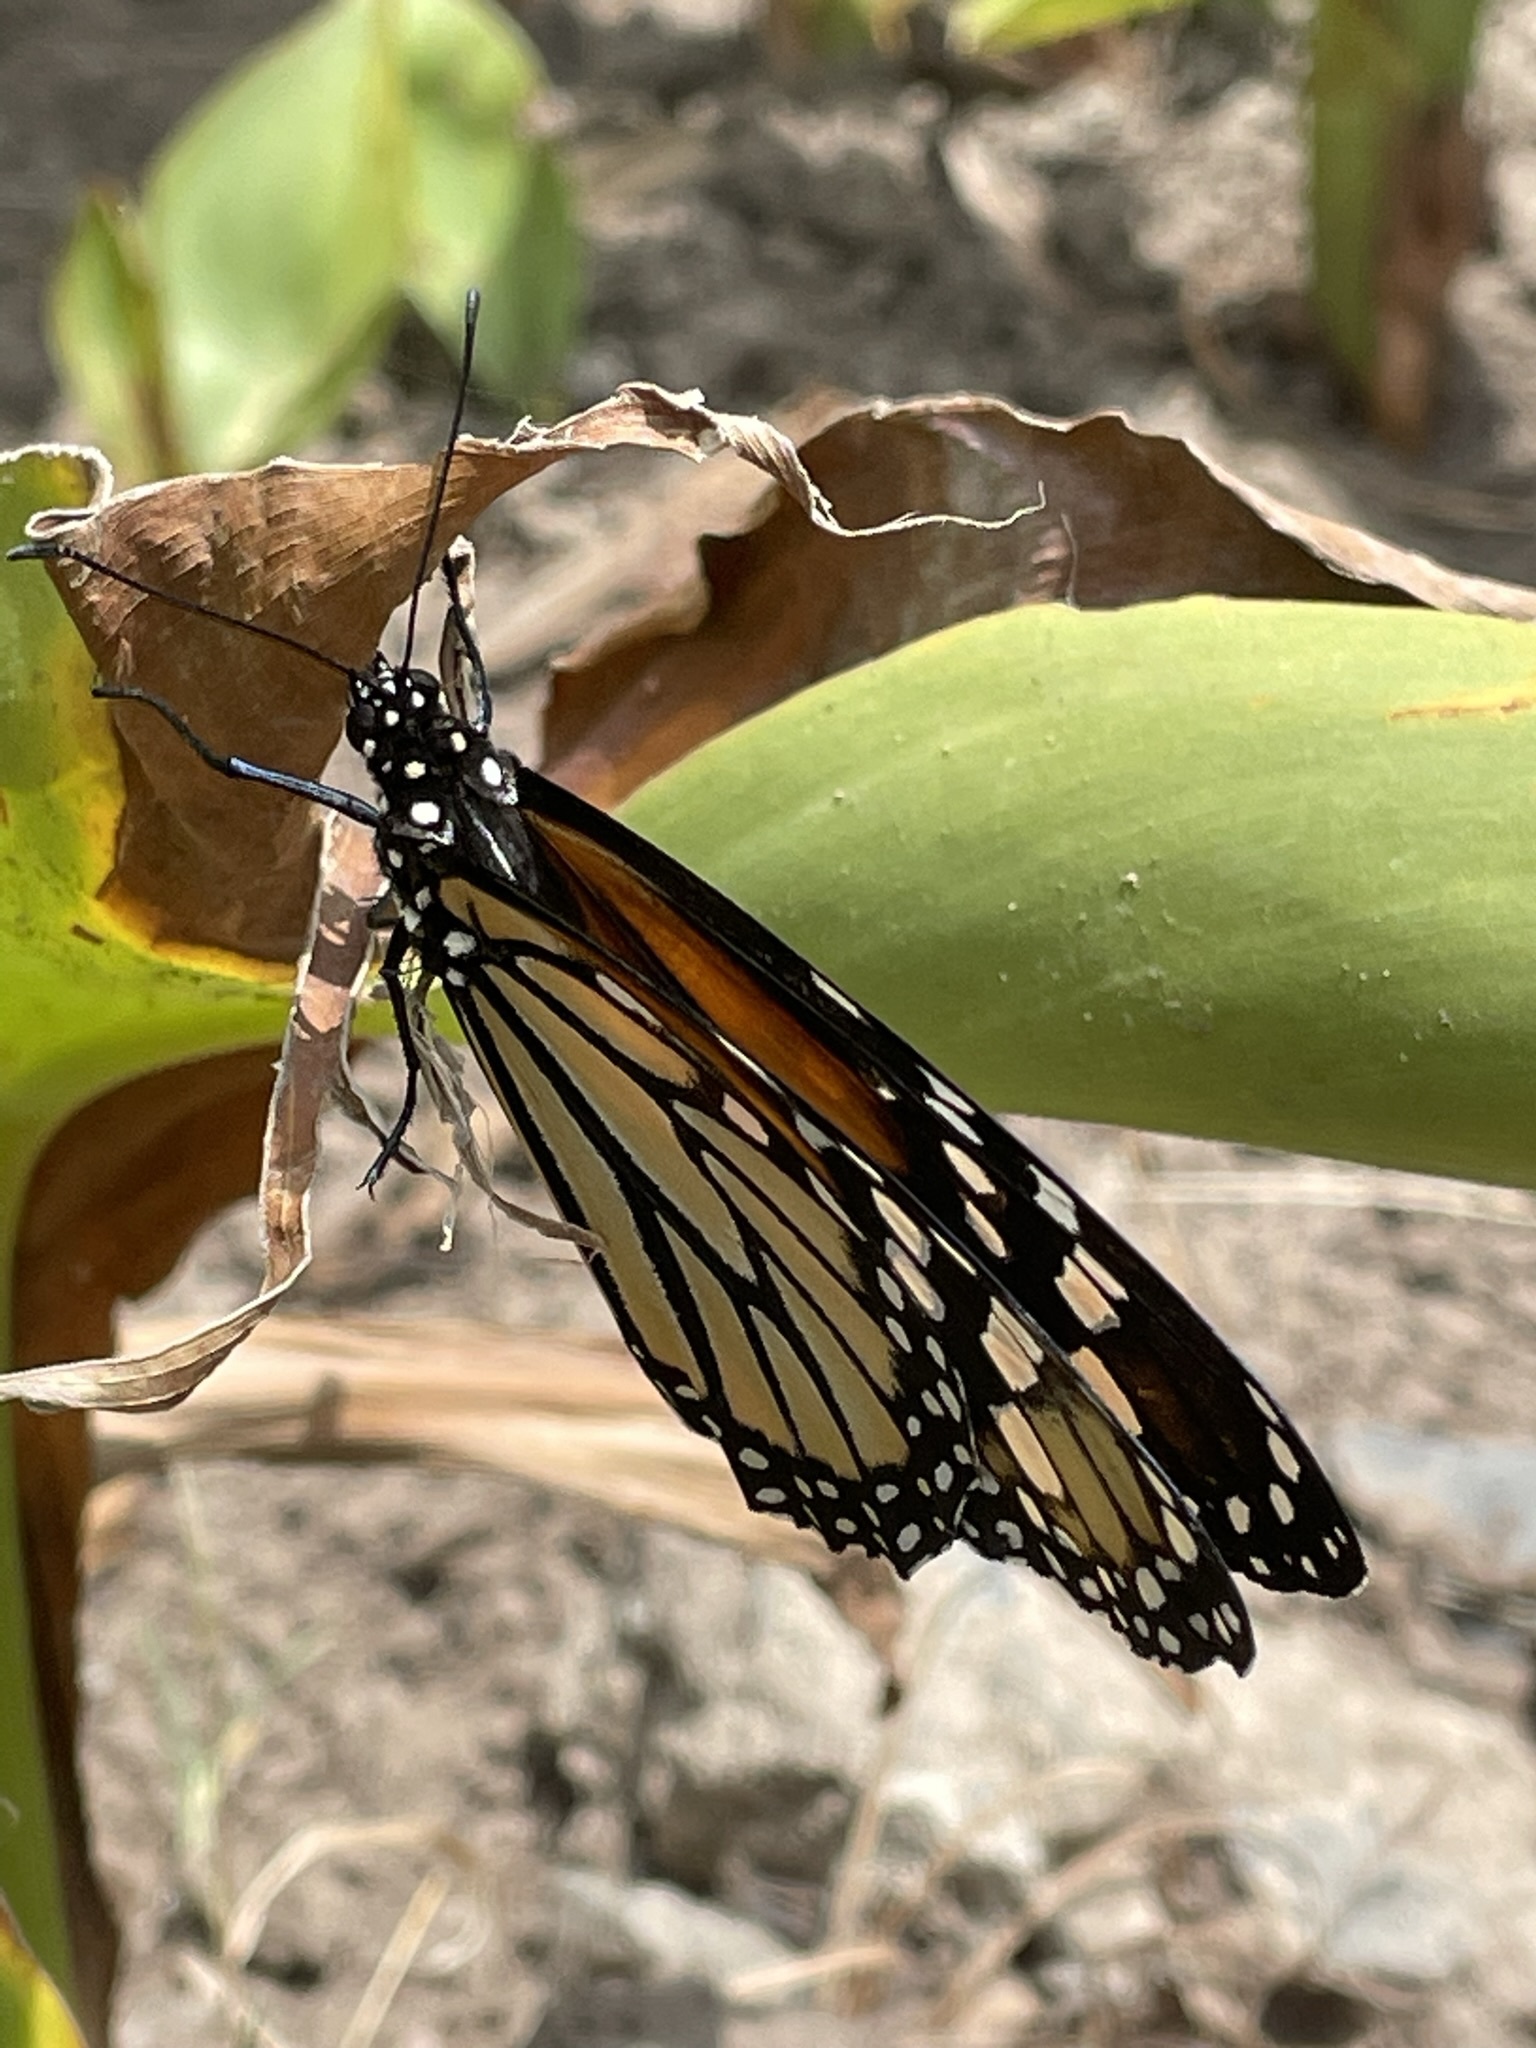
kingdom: Animalia
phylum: Arthropoda
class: Insecta
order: Lepidoptera
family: Nymphalidae
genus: Danaus
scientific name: Danaus plexippus
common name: Monarch
